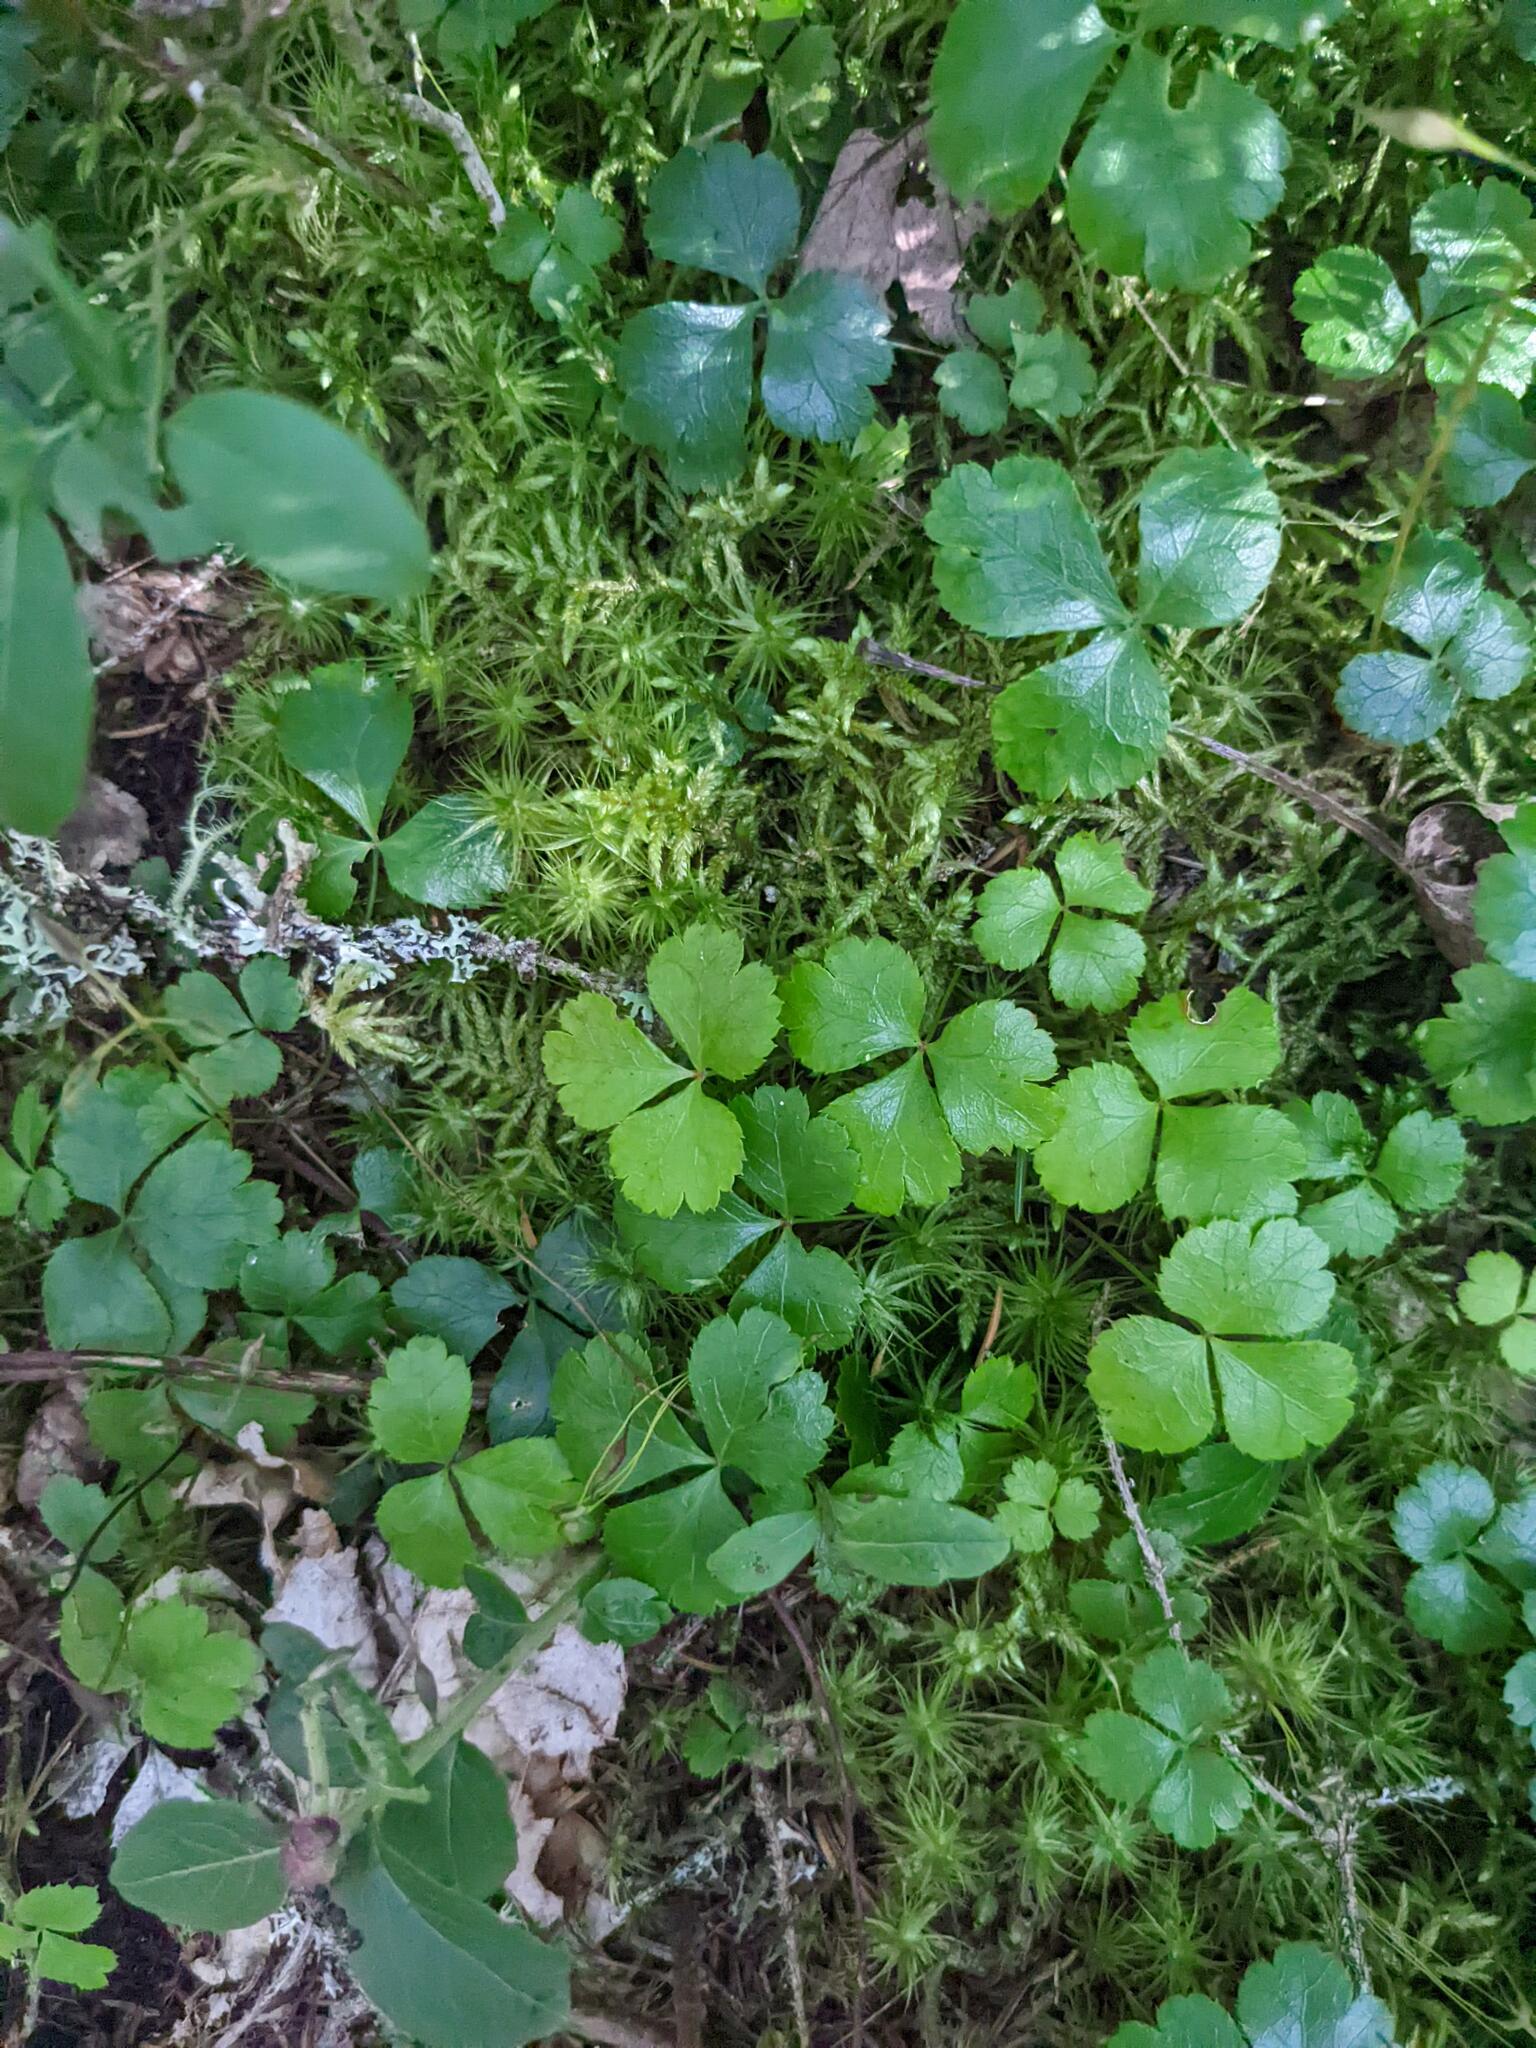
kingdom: Plantae
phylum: Tracheophyta
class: Magnoliopsida
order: Ranunculales
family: Ranunculaceae
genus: Coptis
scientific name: Coptis trifolia
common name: Canker-root
